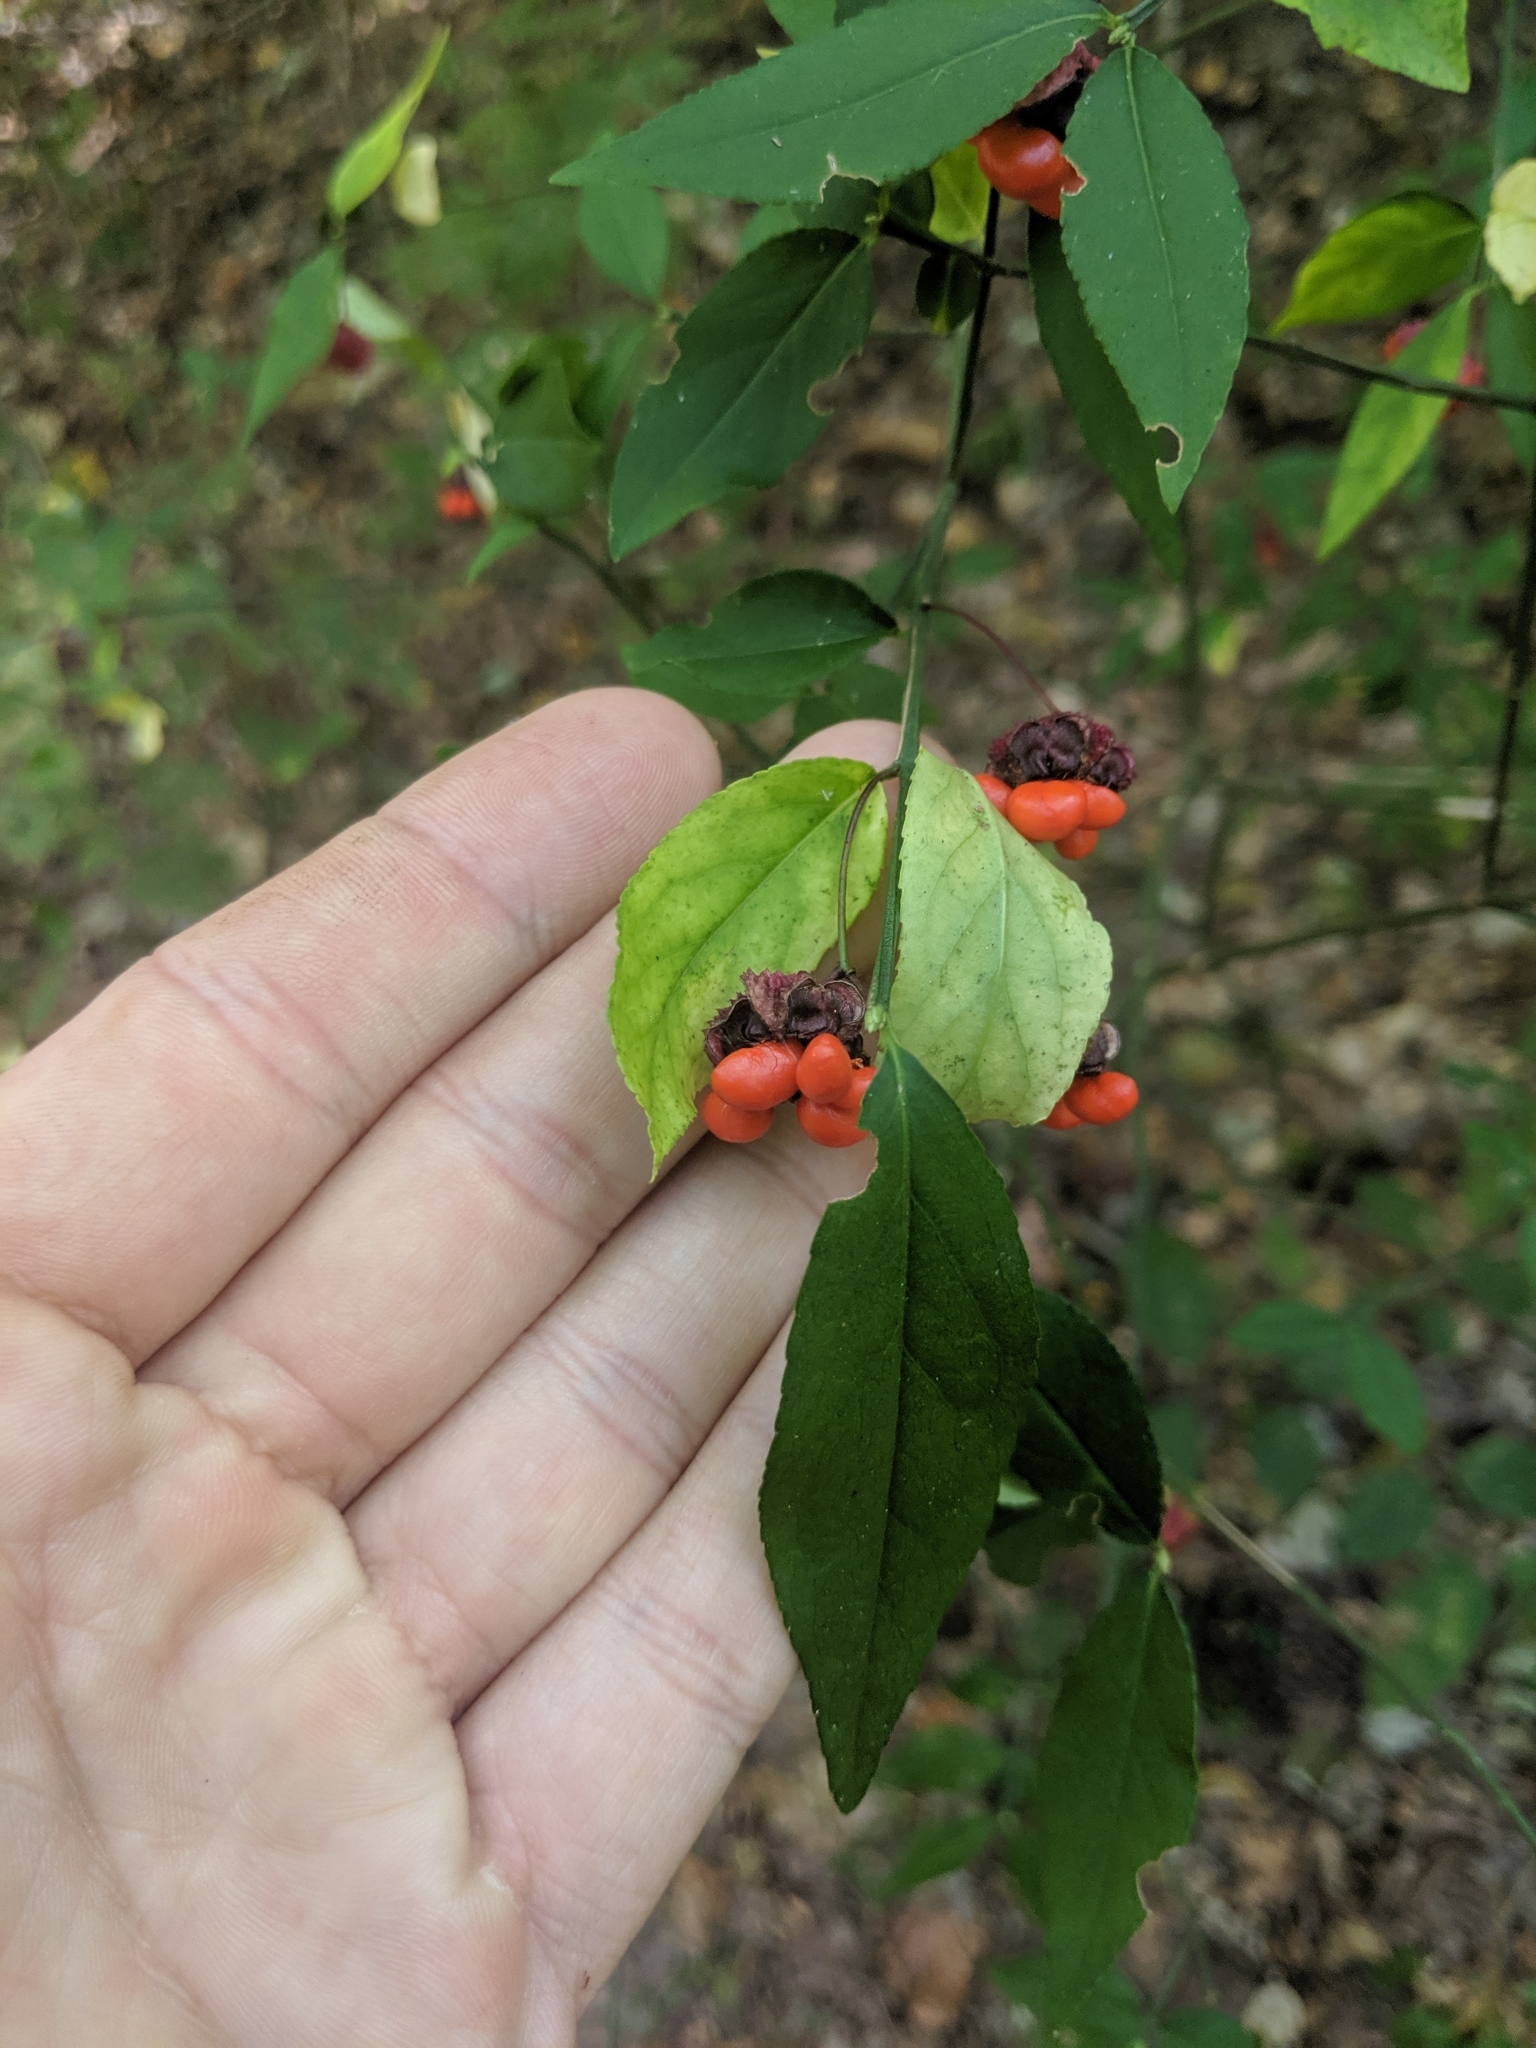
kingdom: Plantae
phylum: Tracheophyta
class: Magnoliopsida
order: Celastrales
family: Celastraceae
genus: Euonymus
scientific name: Euonymus americanus
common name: Bursting-heart
